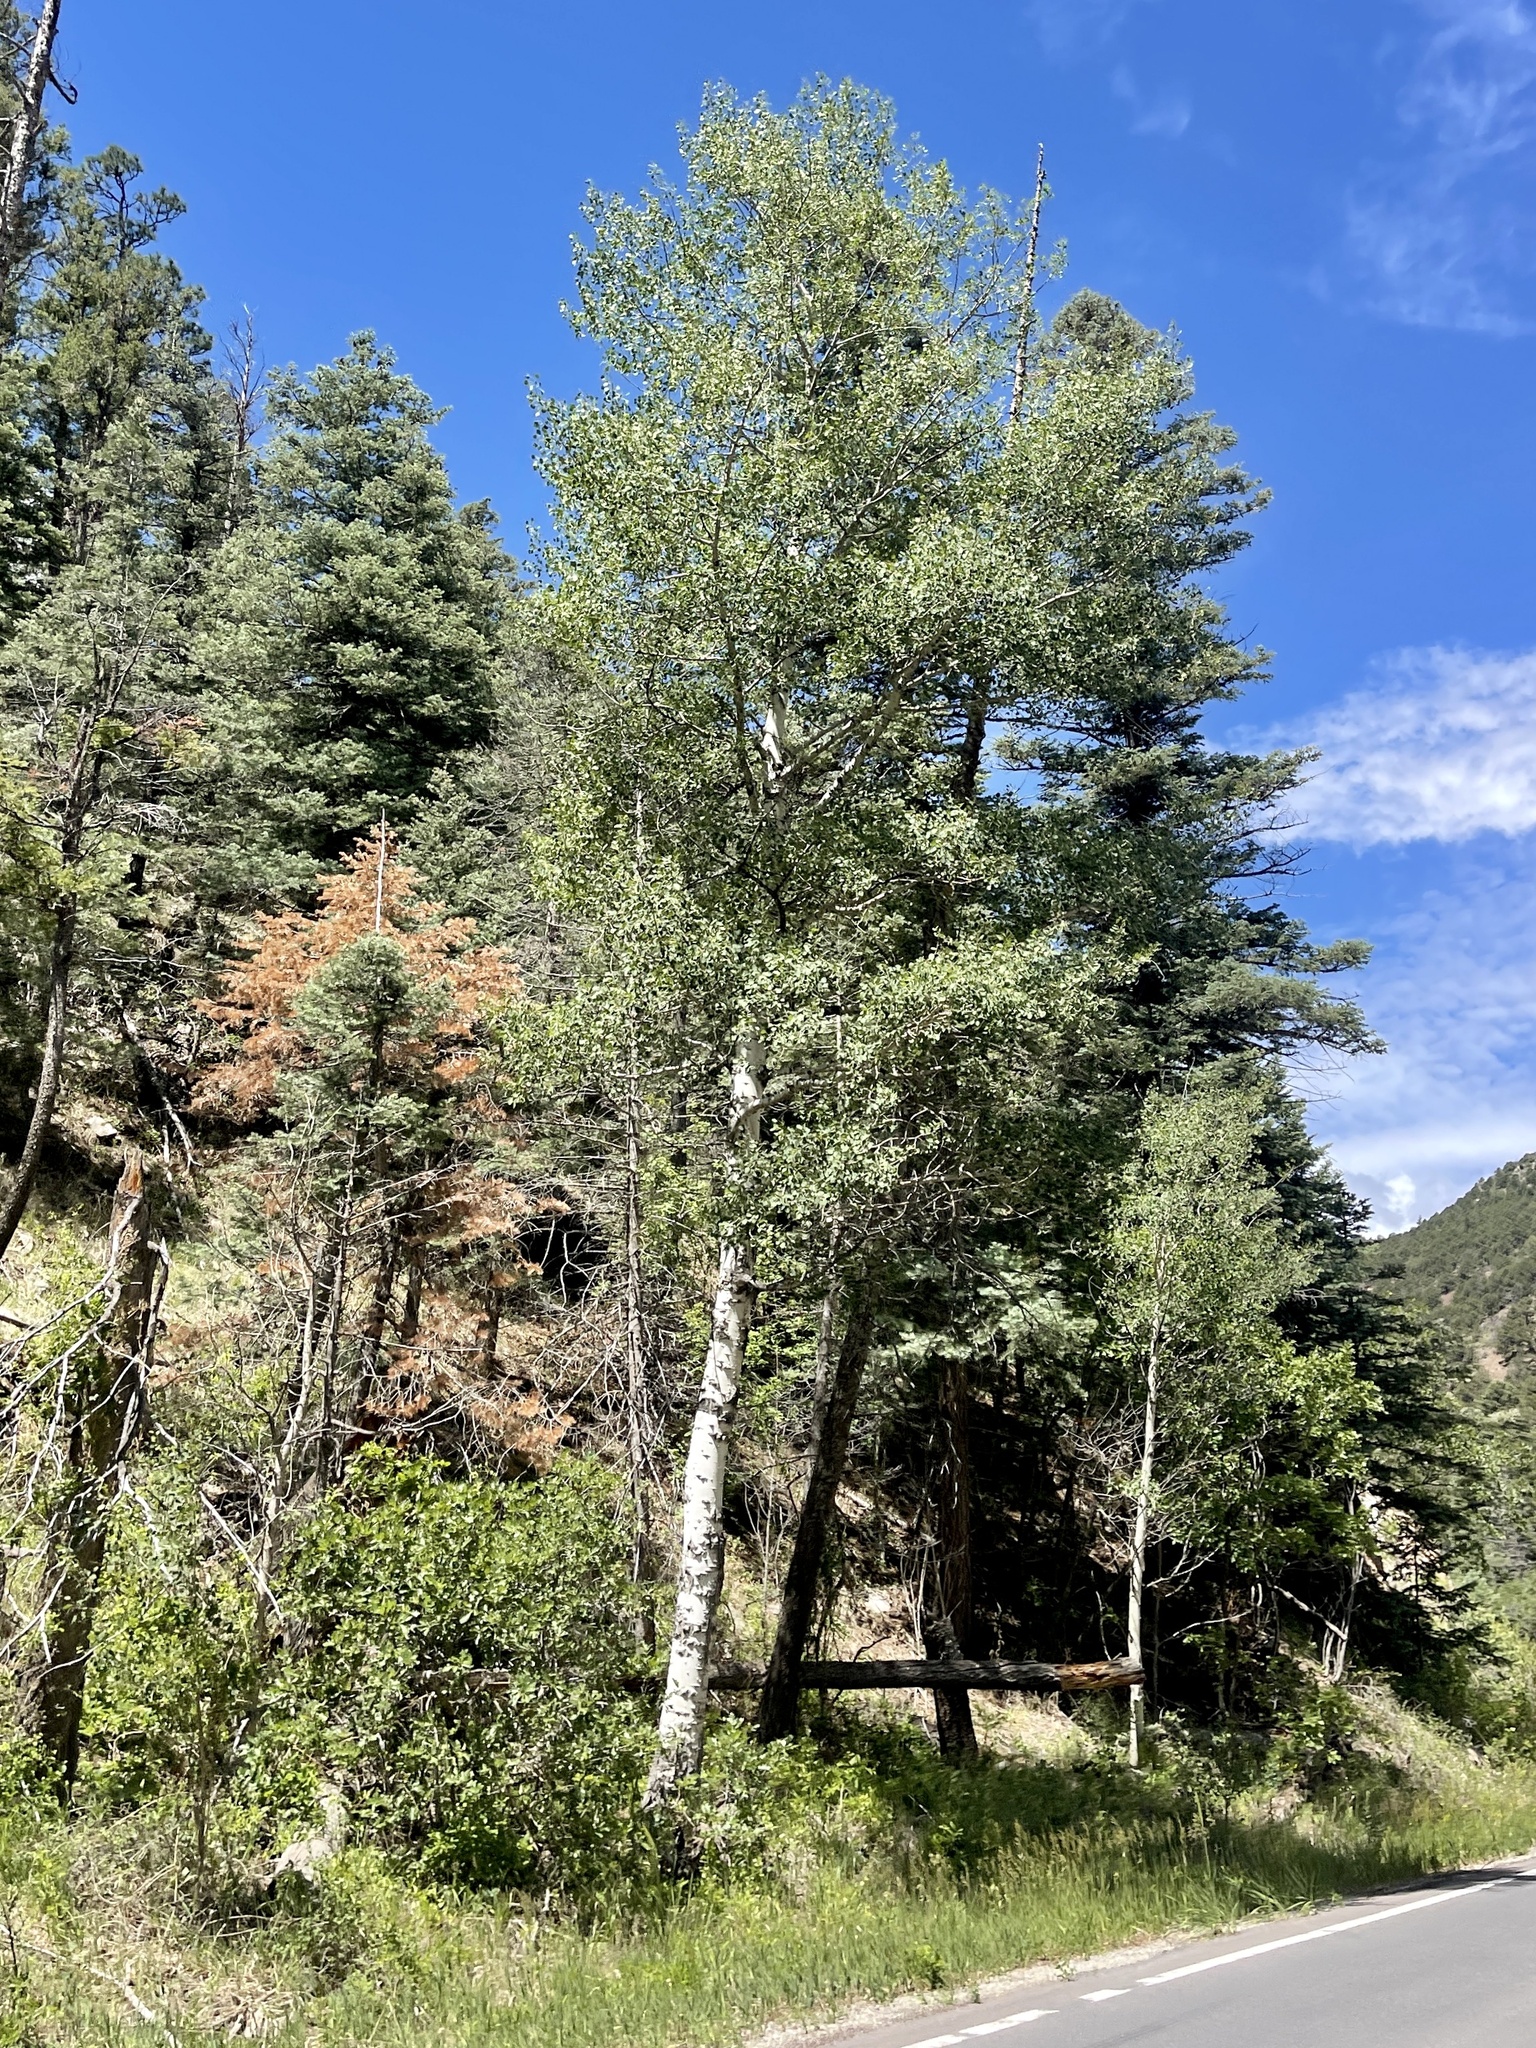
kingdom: Plantae
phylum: Tracheophyta
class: Magnoliopsida
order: Malpighiales
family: Salicaceae
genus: Populus
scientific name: Populus tremuloides
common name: Quaking aspen
